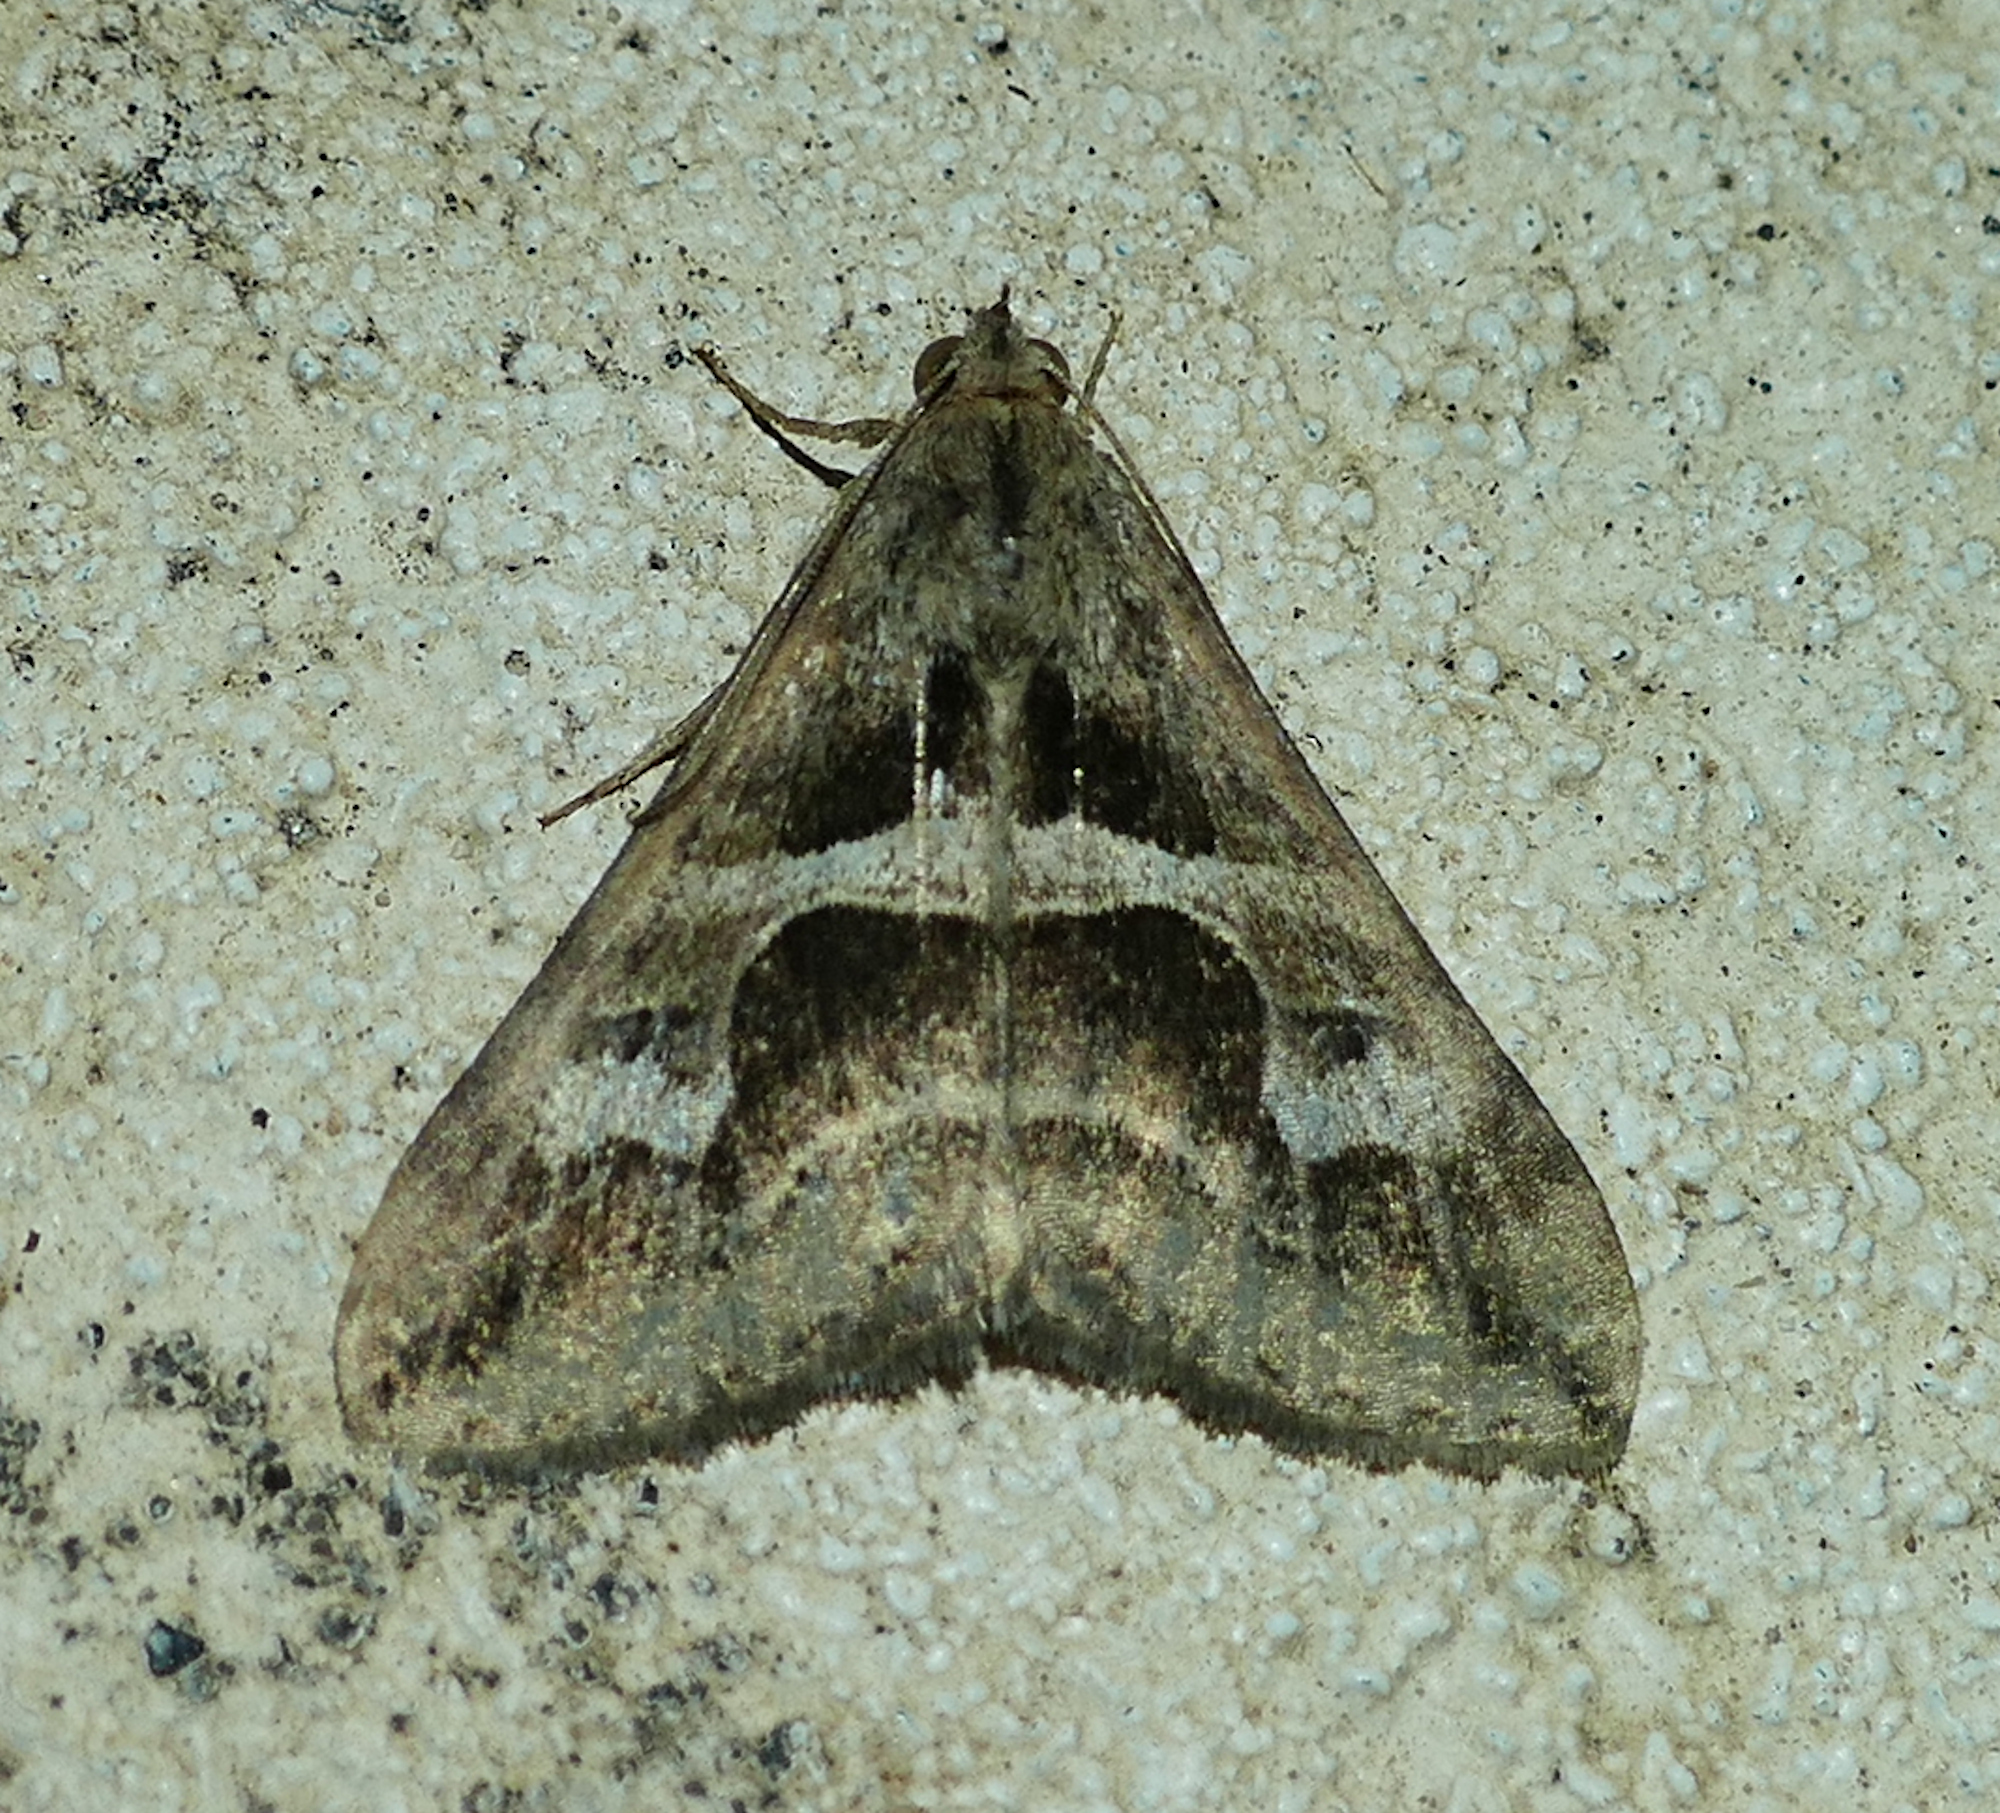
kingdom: Animalia
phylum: Arthropoda
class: Insecta
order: Lepidoptera
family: Erebidae
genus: Melipotis
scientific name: Melipotis cellaris
